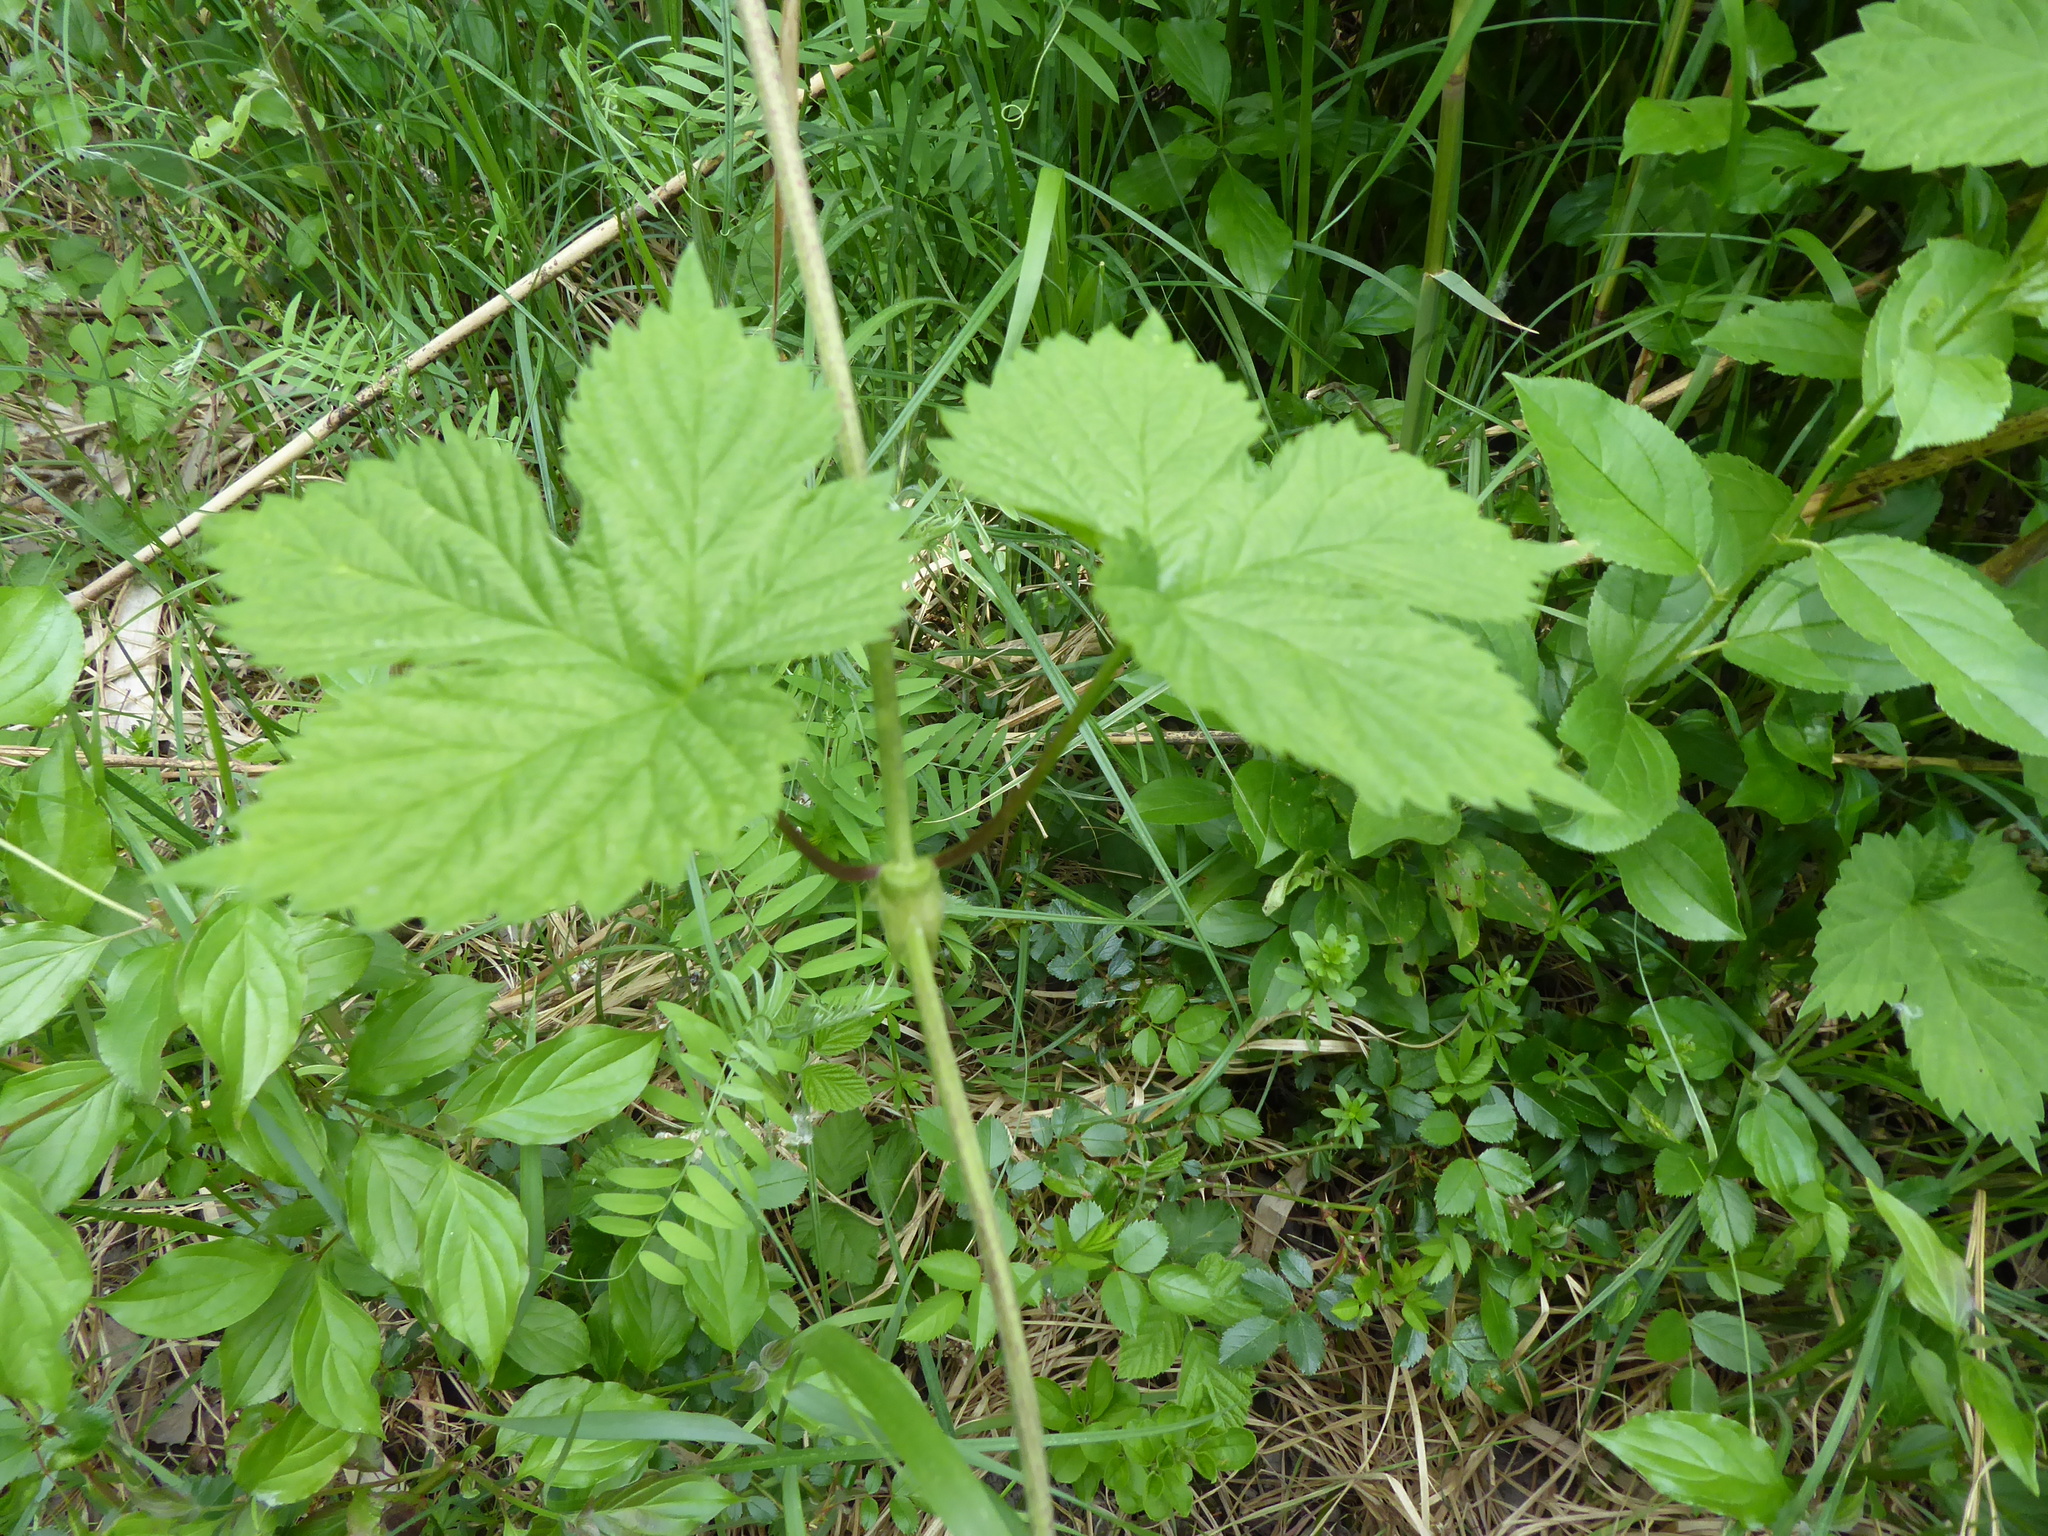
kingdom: Plantae
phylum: Tracheophyta
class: Magnoliopsida
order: Rosales
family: Cannabaceae
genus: Humulus
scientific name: Humulus lupulus
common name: Hop
